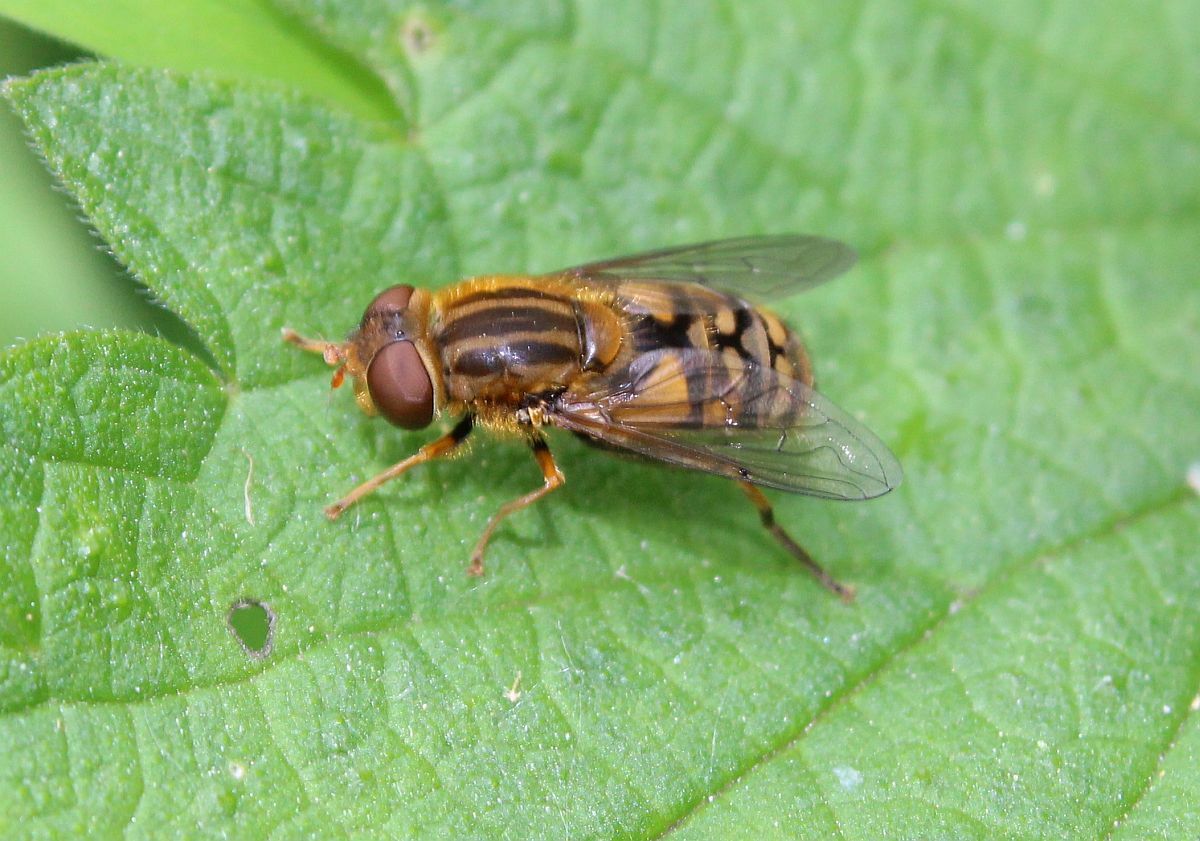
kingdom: Animalia
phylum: Arthropoda
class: Insecta
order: Diptera
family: Syrphidae
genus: Parhelophilus
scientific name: Parhelophilus
